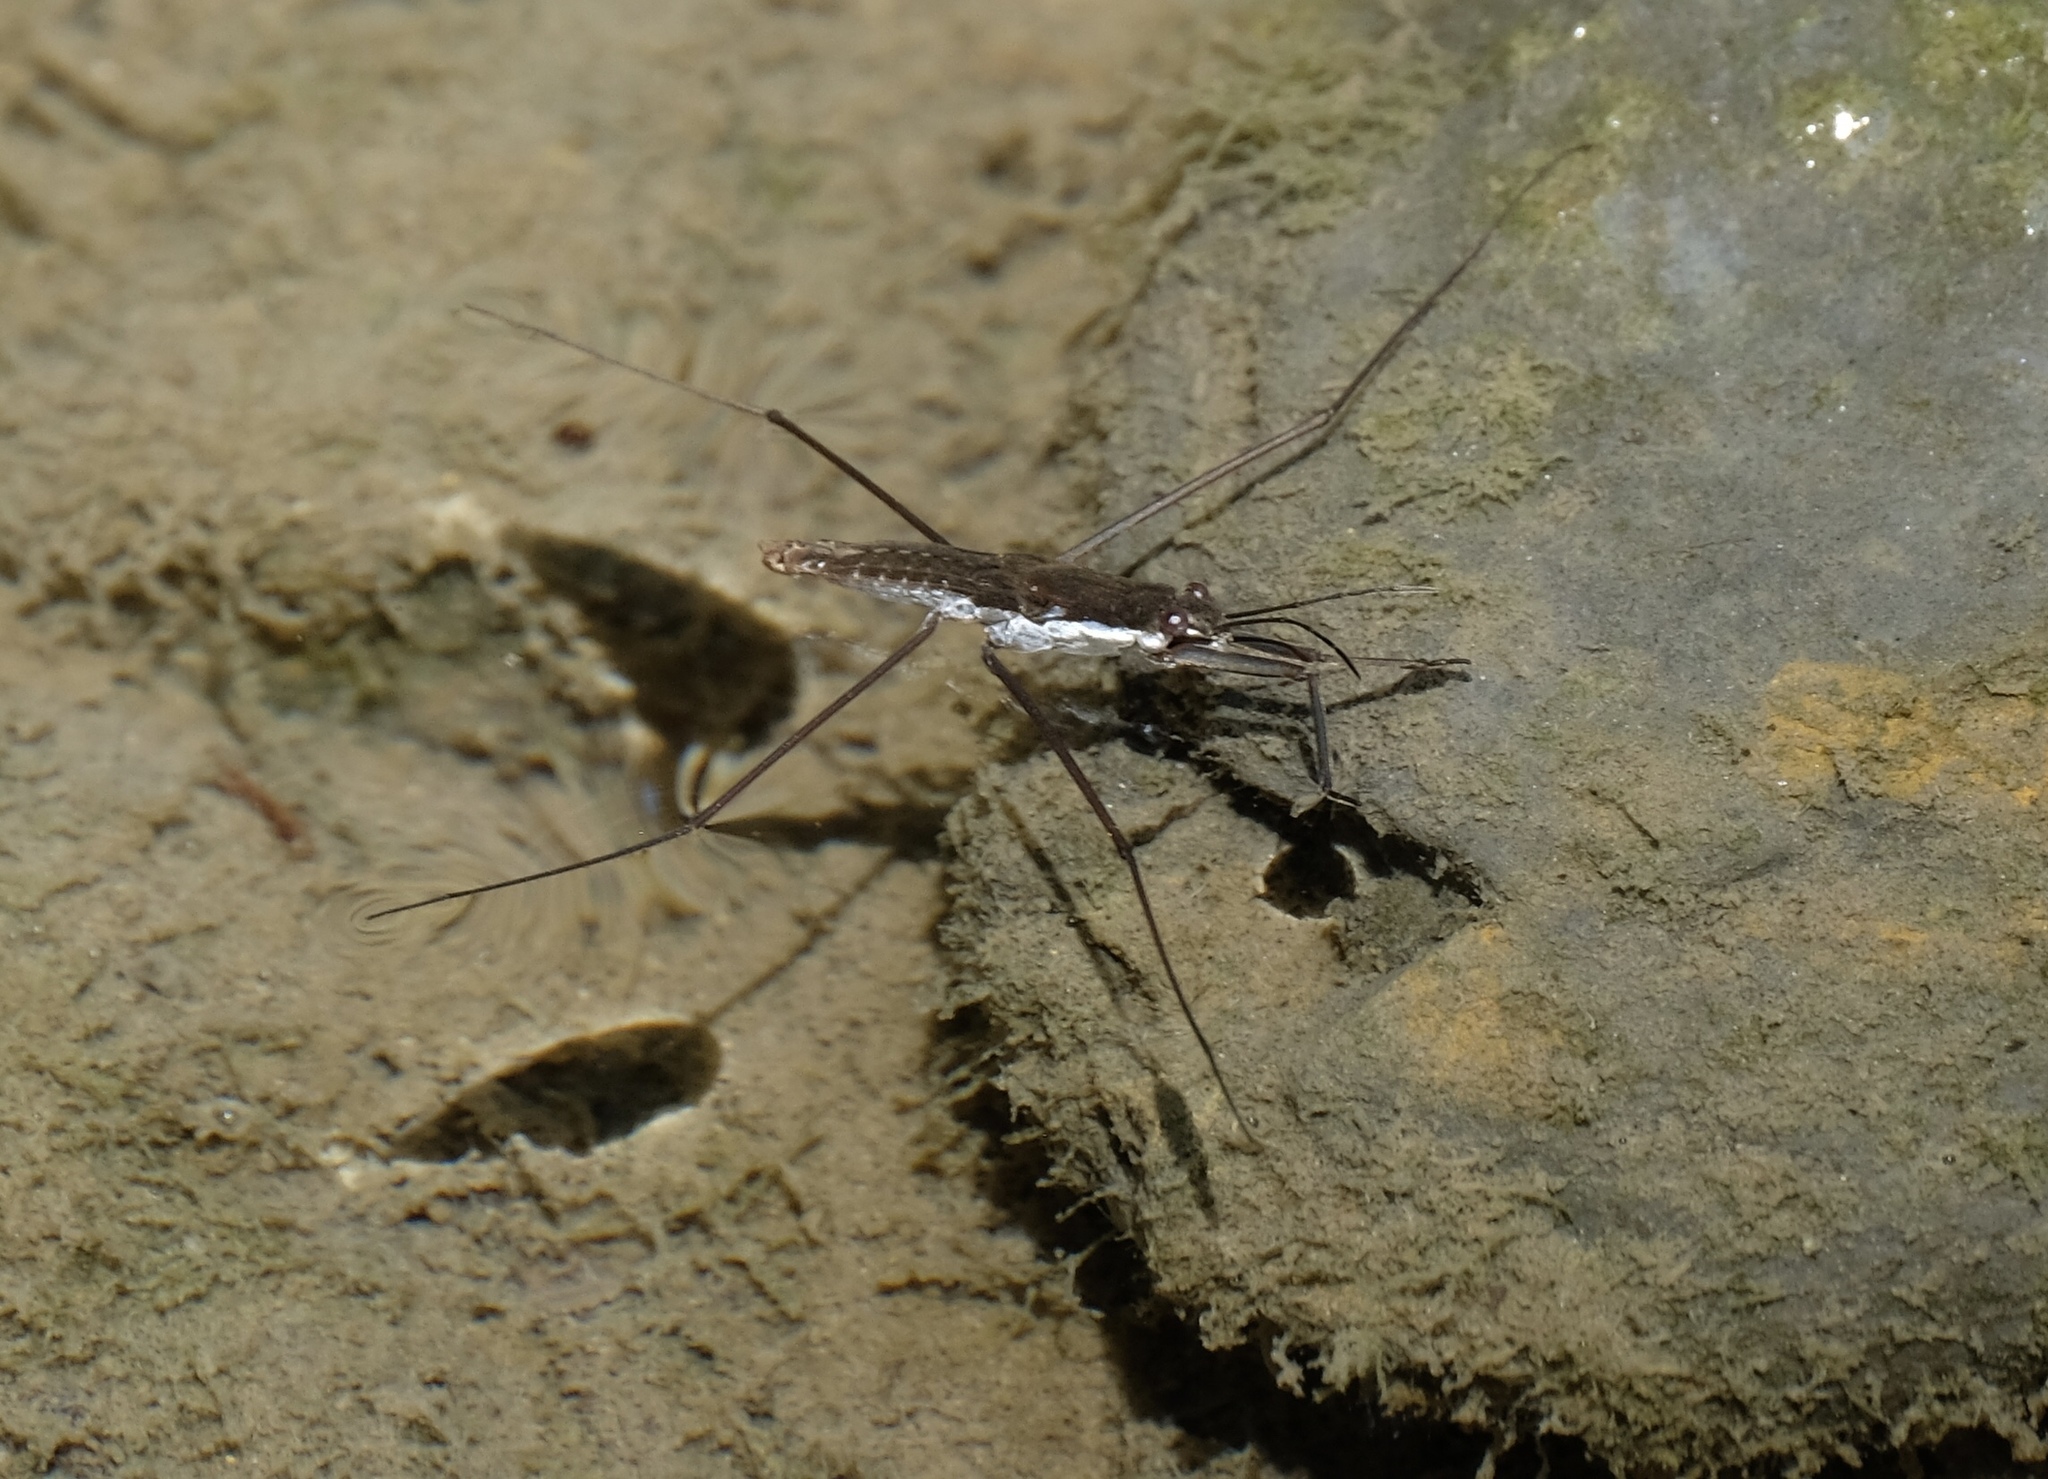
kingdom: Animalia
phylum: Arthropoda
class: Insecta
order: Hemiptera
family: Gerridae
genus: Aquarius
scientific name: Aquarius remigis
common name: Common water strider
